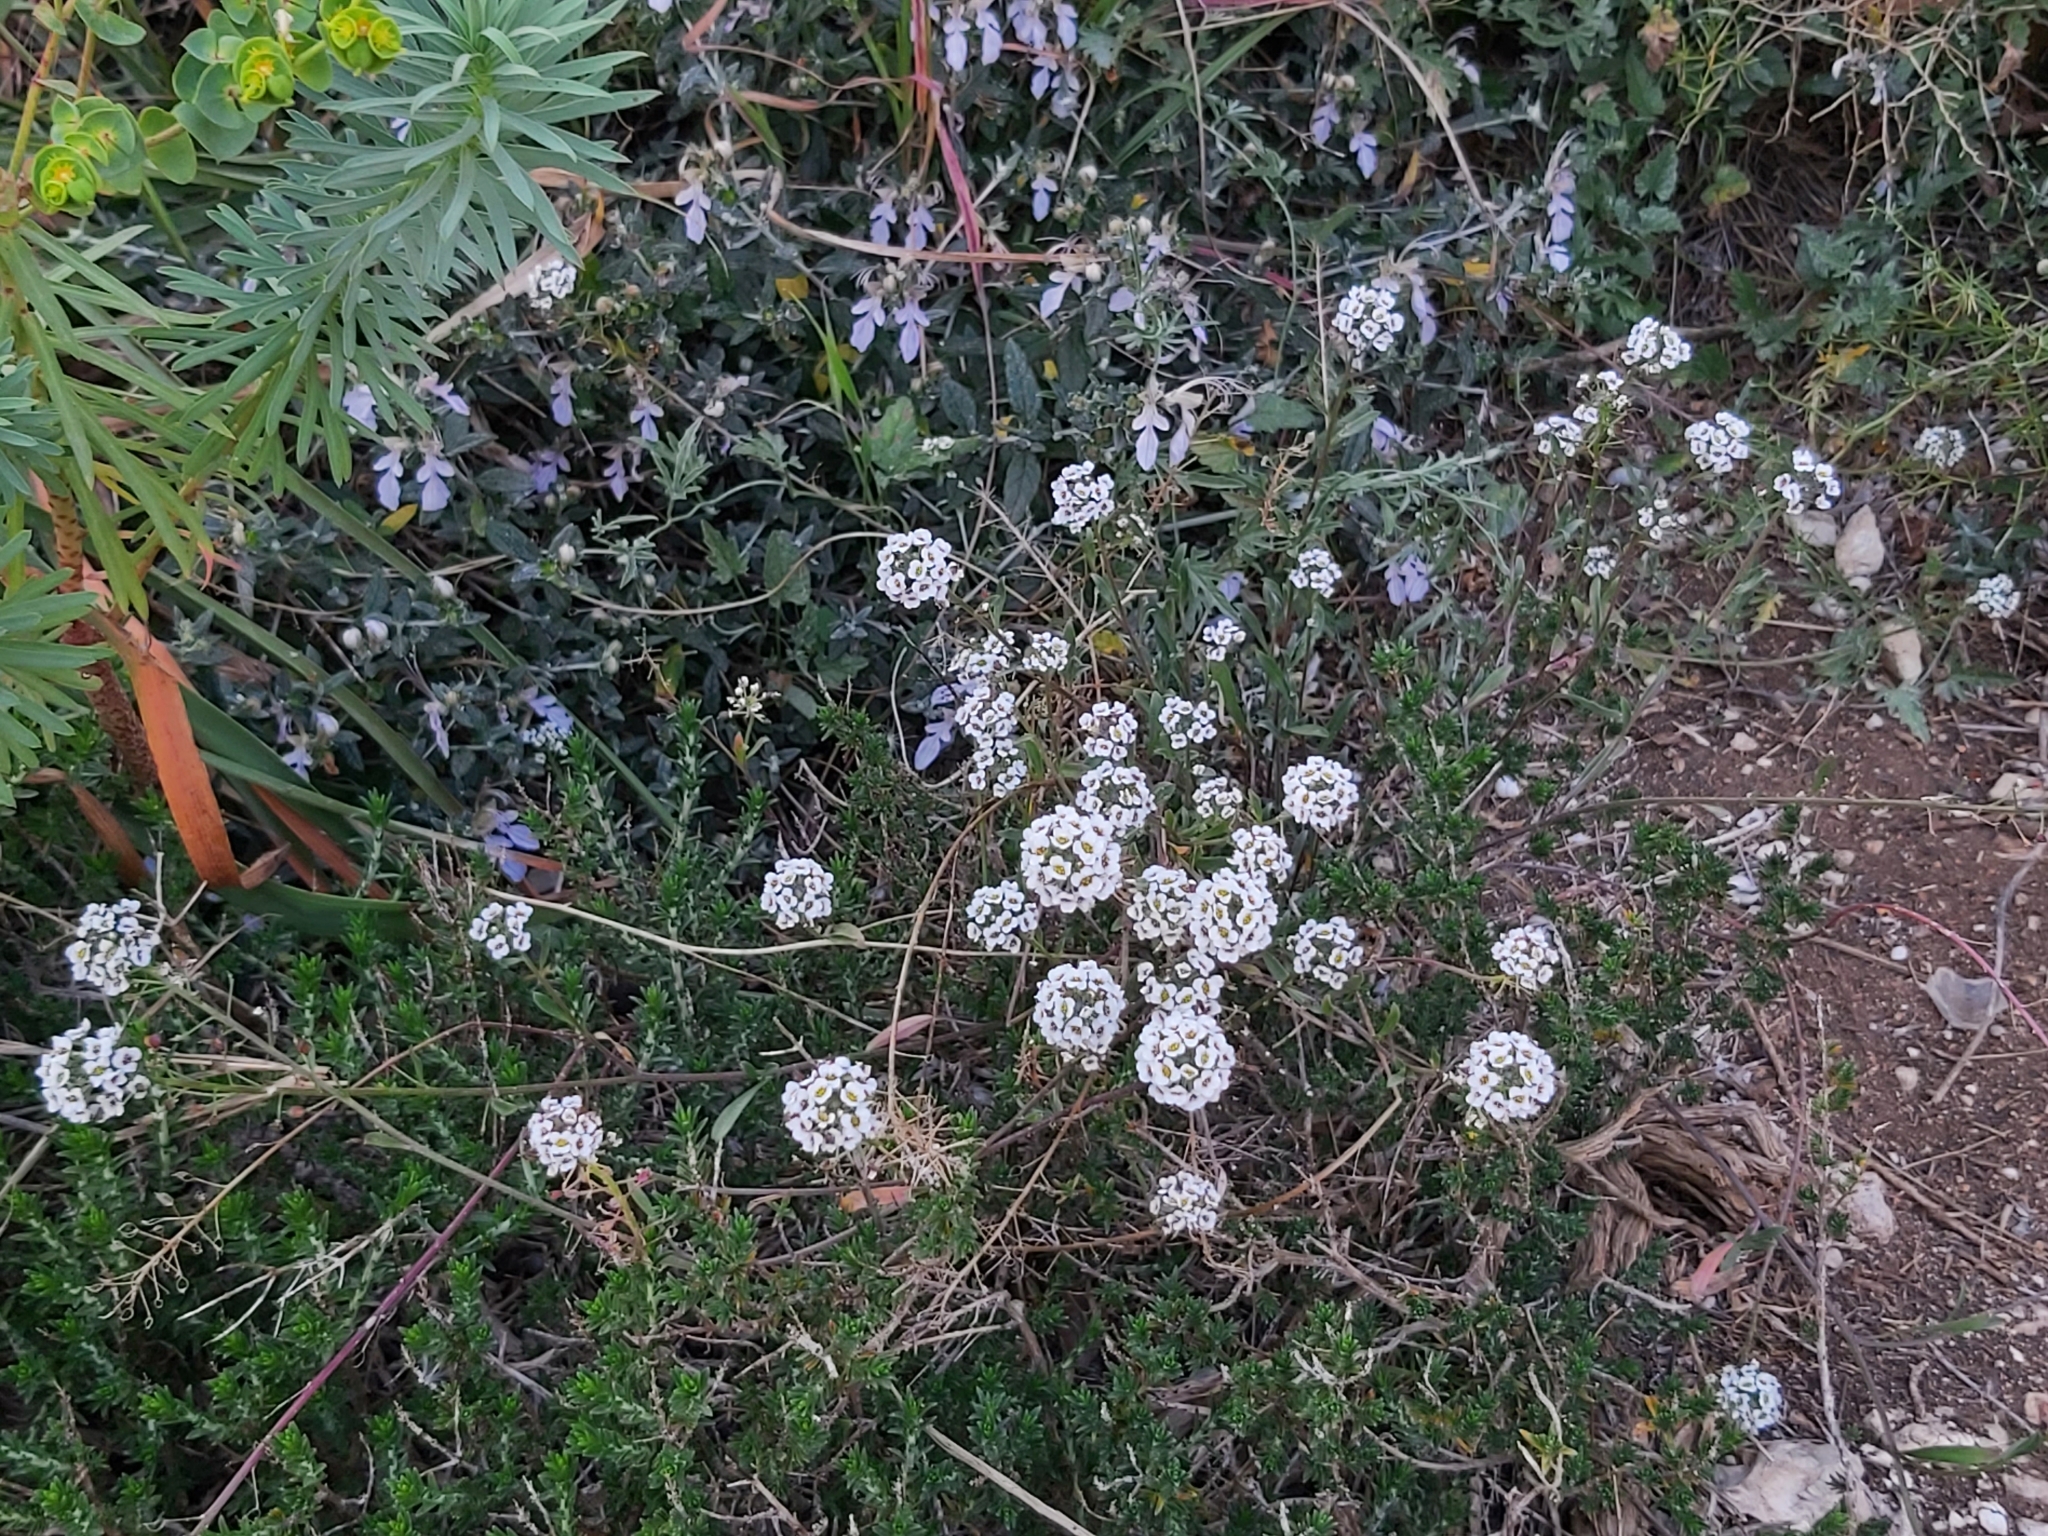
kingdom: Plantae
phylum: Tracheophyta
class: Magnoliopsida
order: Brassicales
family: Brassicaceae
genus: Lobularia
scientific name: Lobularia maritima
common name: Sweet alison
